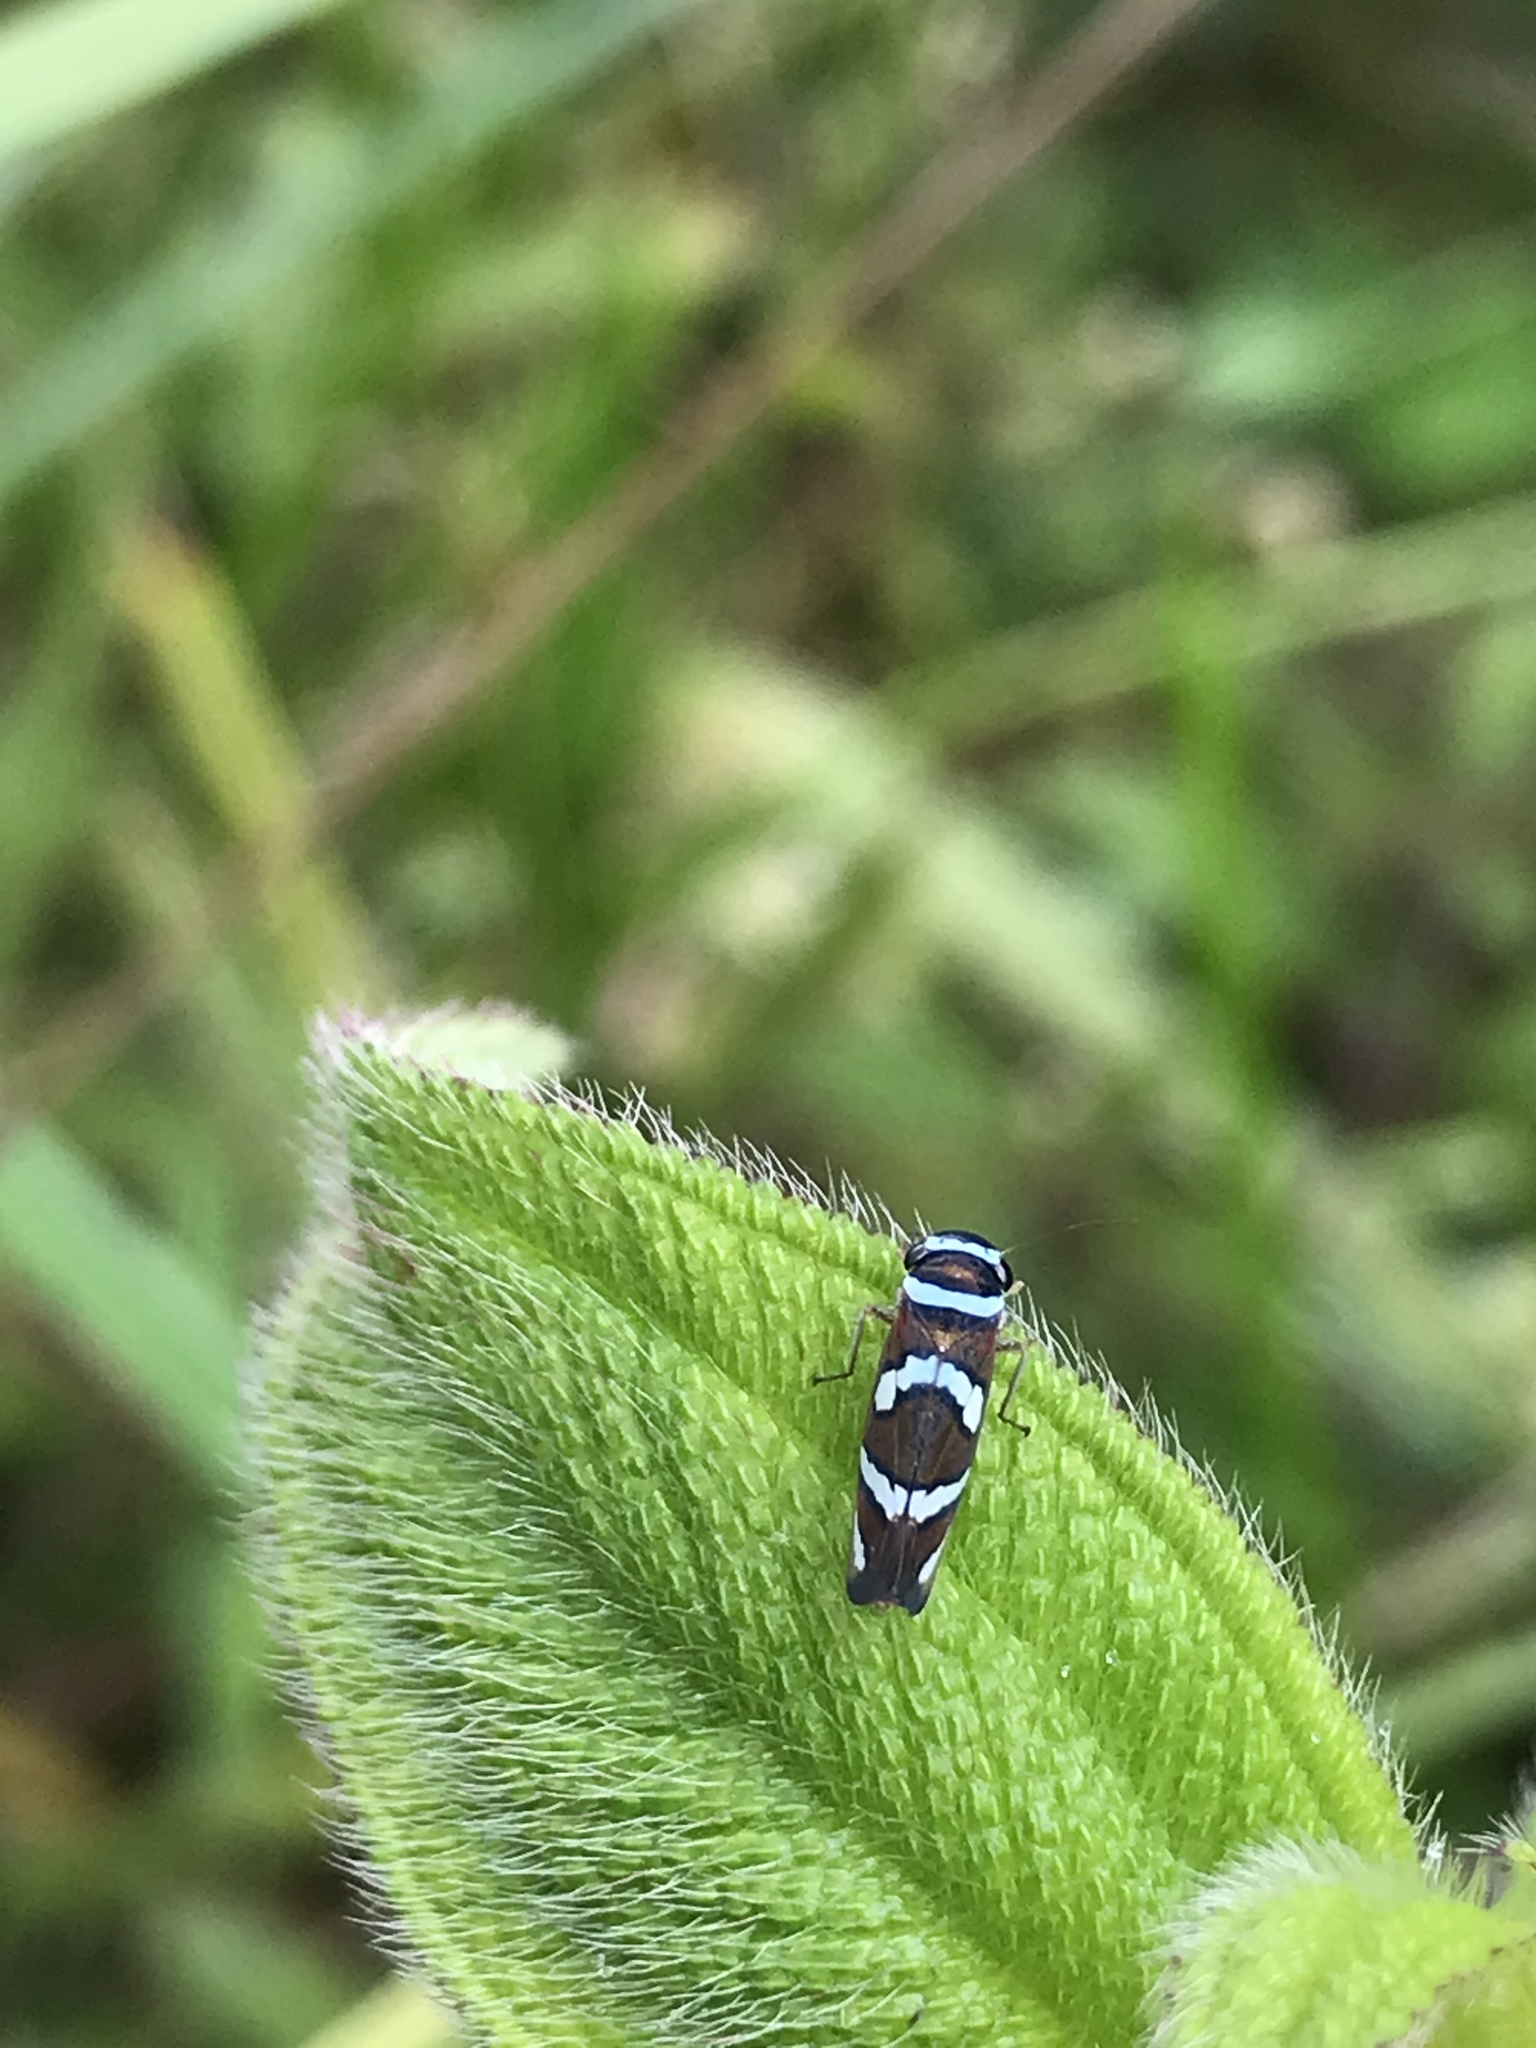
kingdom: Animalia
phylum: Arthropoda
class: Insecta
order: Hemiptera
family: Cicadellidae
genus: Macugonalia
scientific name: Macugonalia moesta
